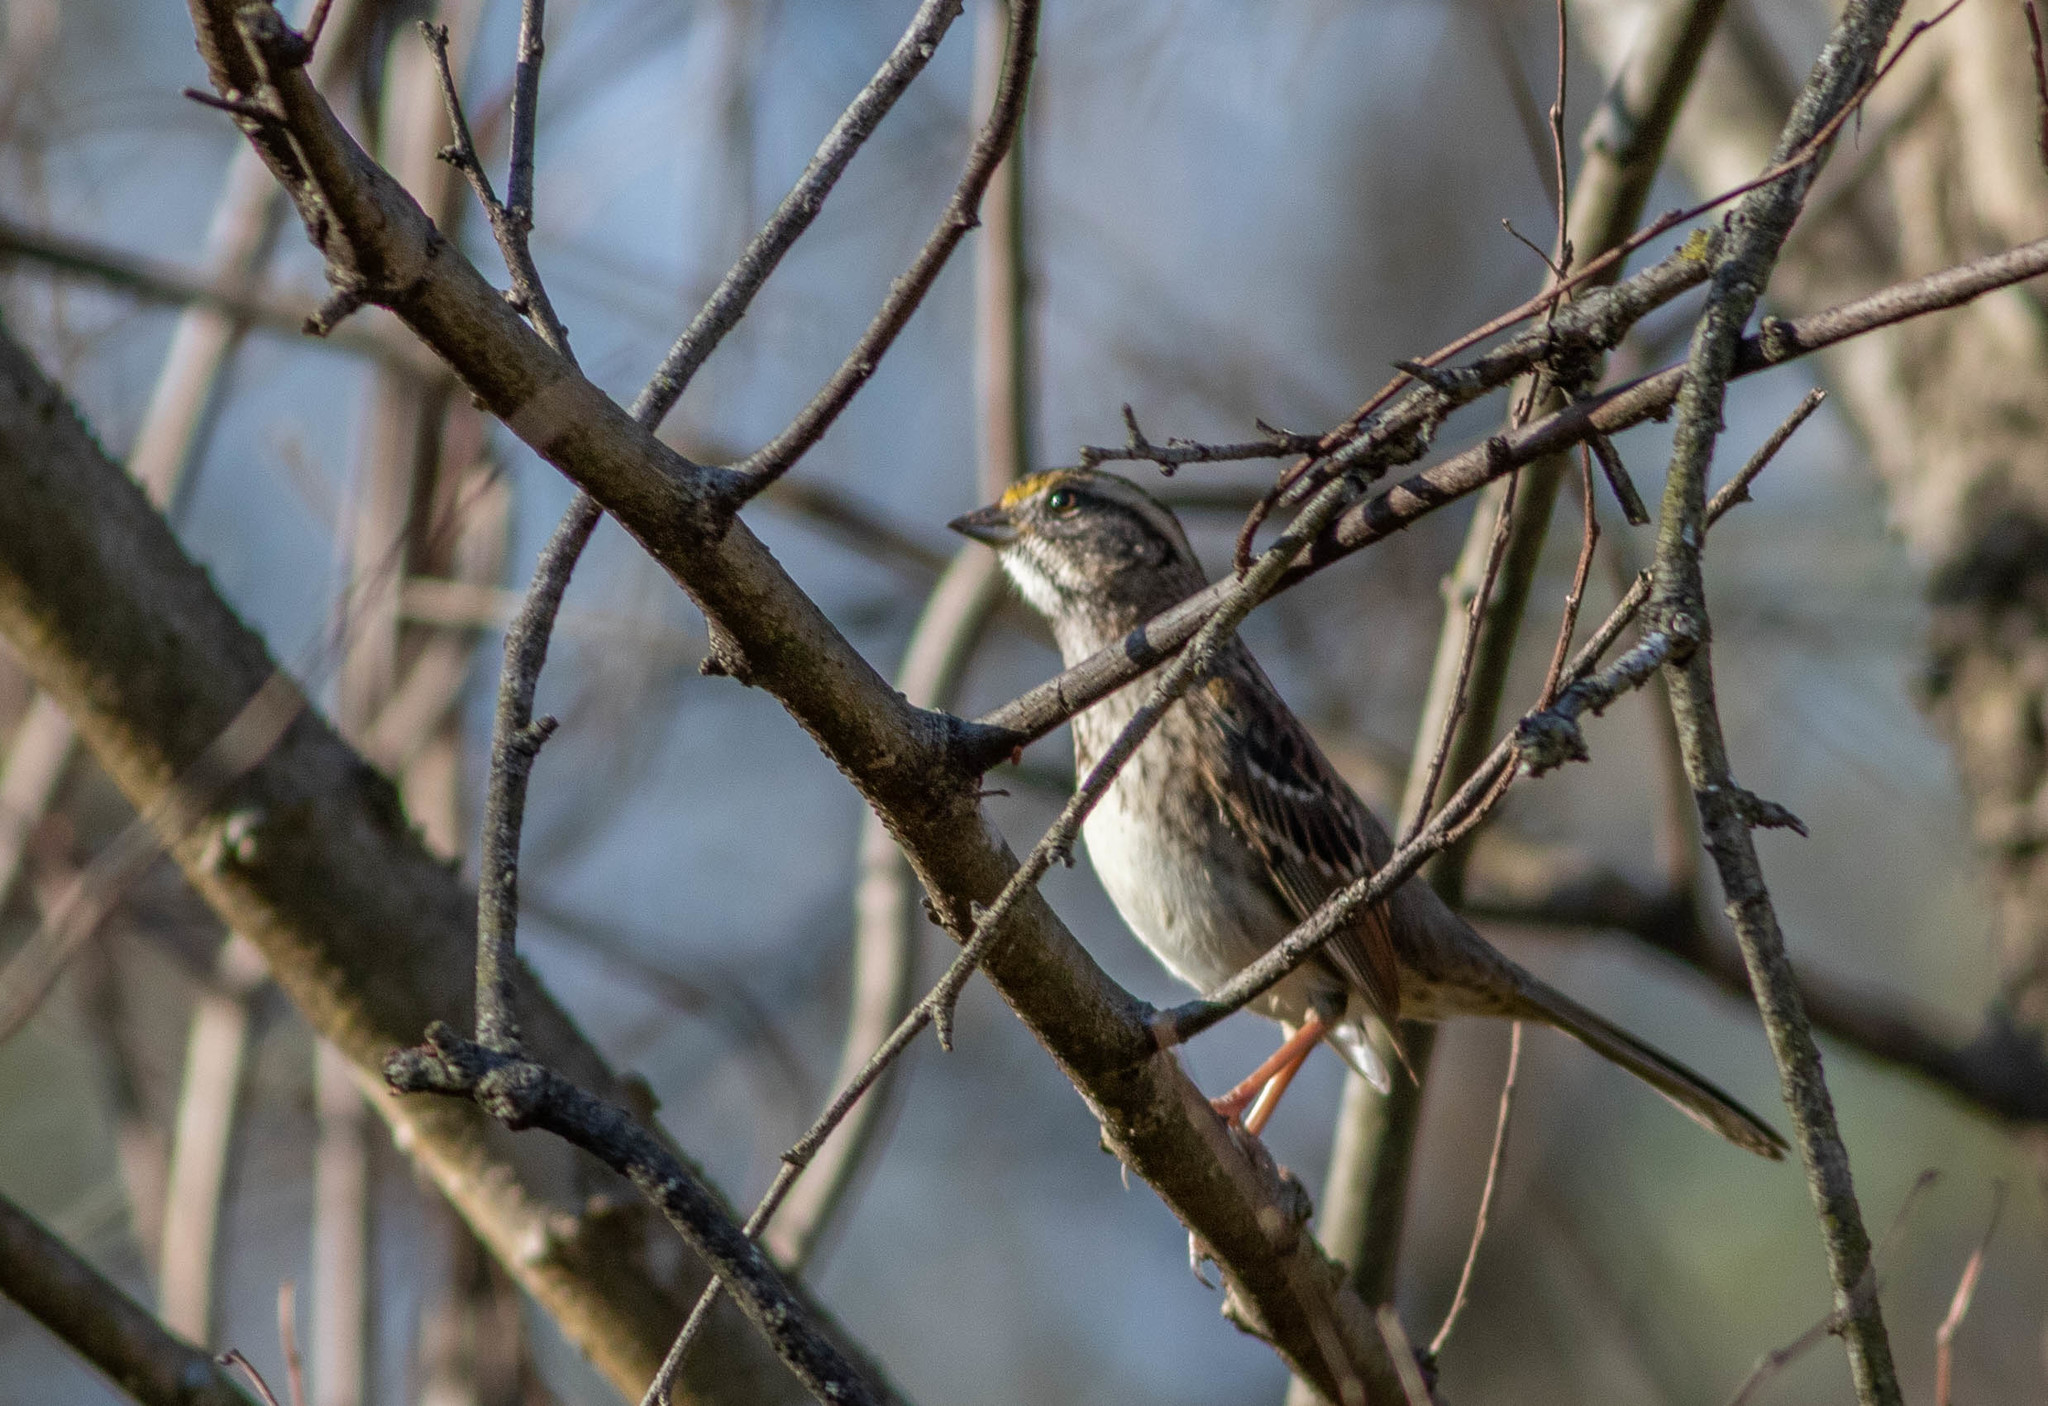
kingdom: Animalia
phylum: Chordata
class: Aves
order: Passeriformes
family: Passerellidae
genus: Zonotrichia
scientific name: Zonotrichia albicollis
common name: White-throated sparrow
